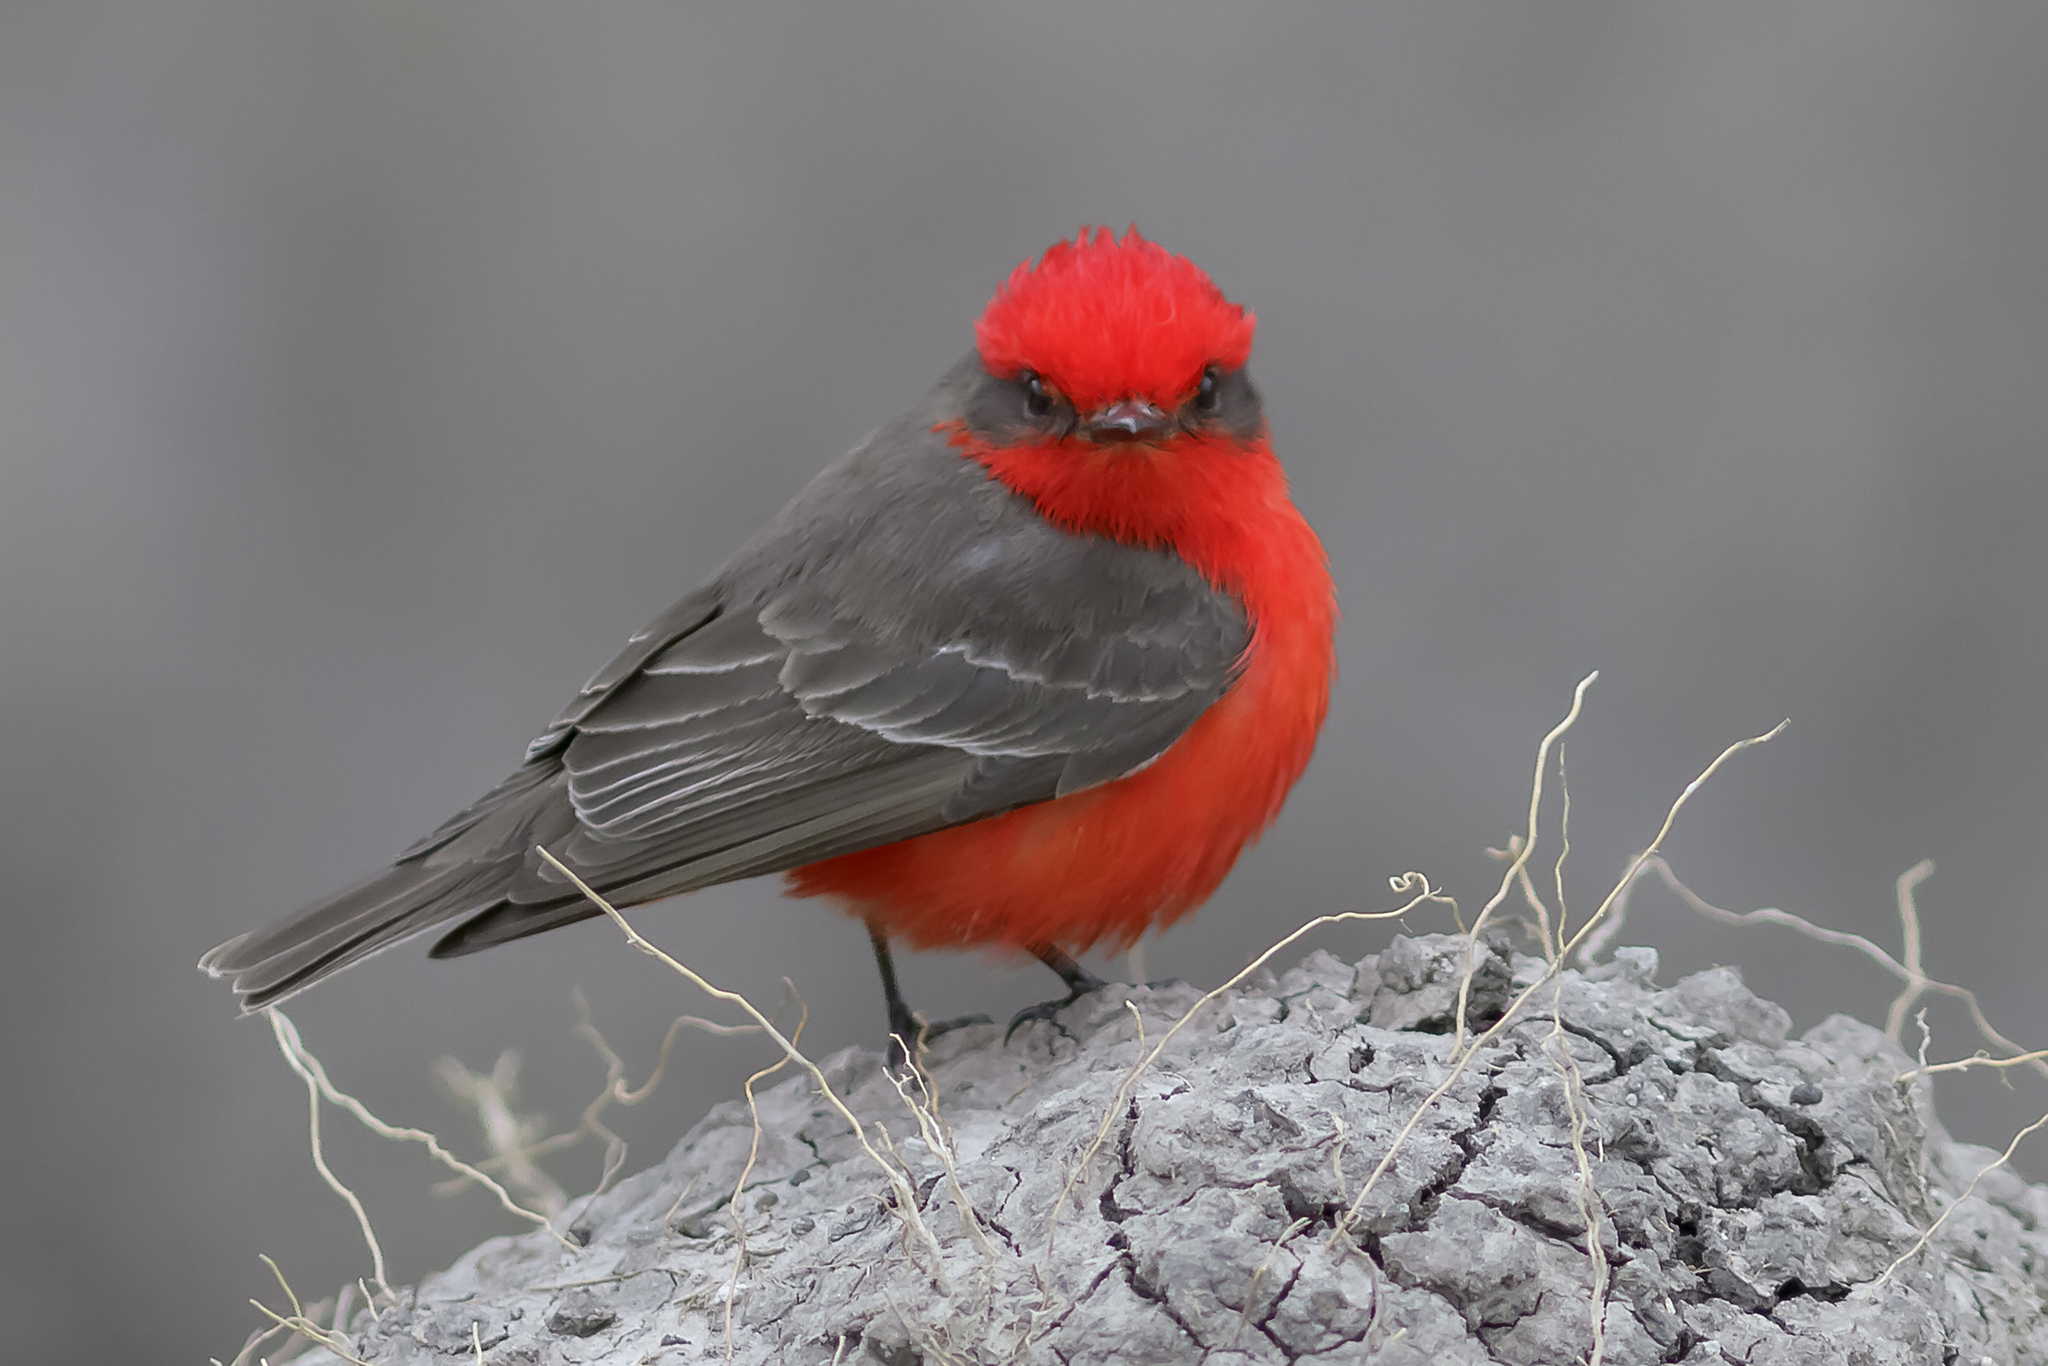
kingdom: Animalia
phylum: Chordata
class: Aves
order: Passeriformes
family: Tyrannidae
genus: Pyrocephalus
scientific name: Pyrocephalus rubinus
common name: Vermilion flycatcher
